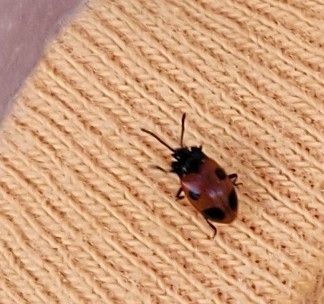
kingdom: Animalia
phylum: Arthropoda
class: Insecta
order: Coleoptera
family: Endomychidae
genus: Endomychus
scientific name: Endomychus biguttatus
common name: Handsome fungus beetle
